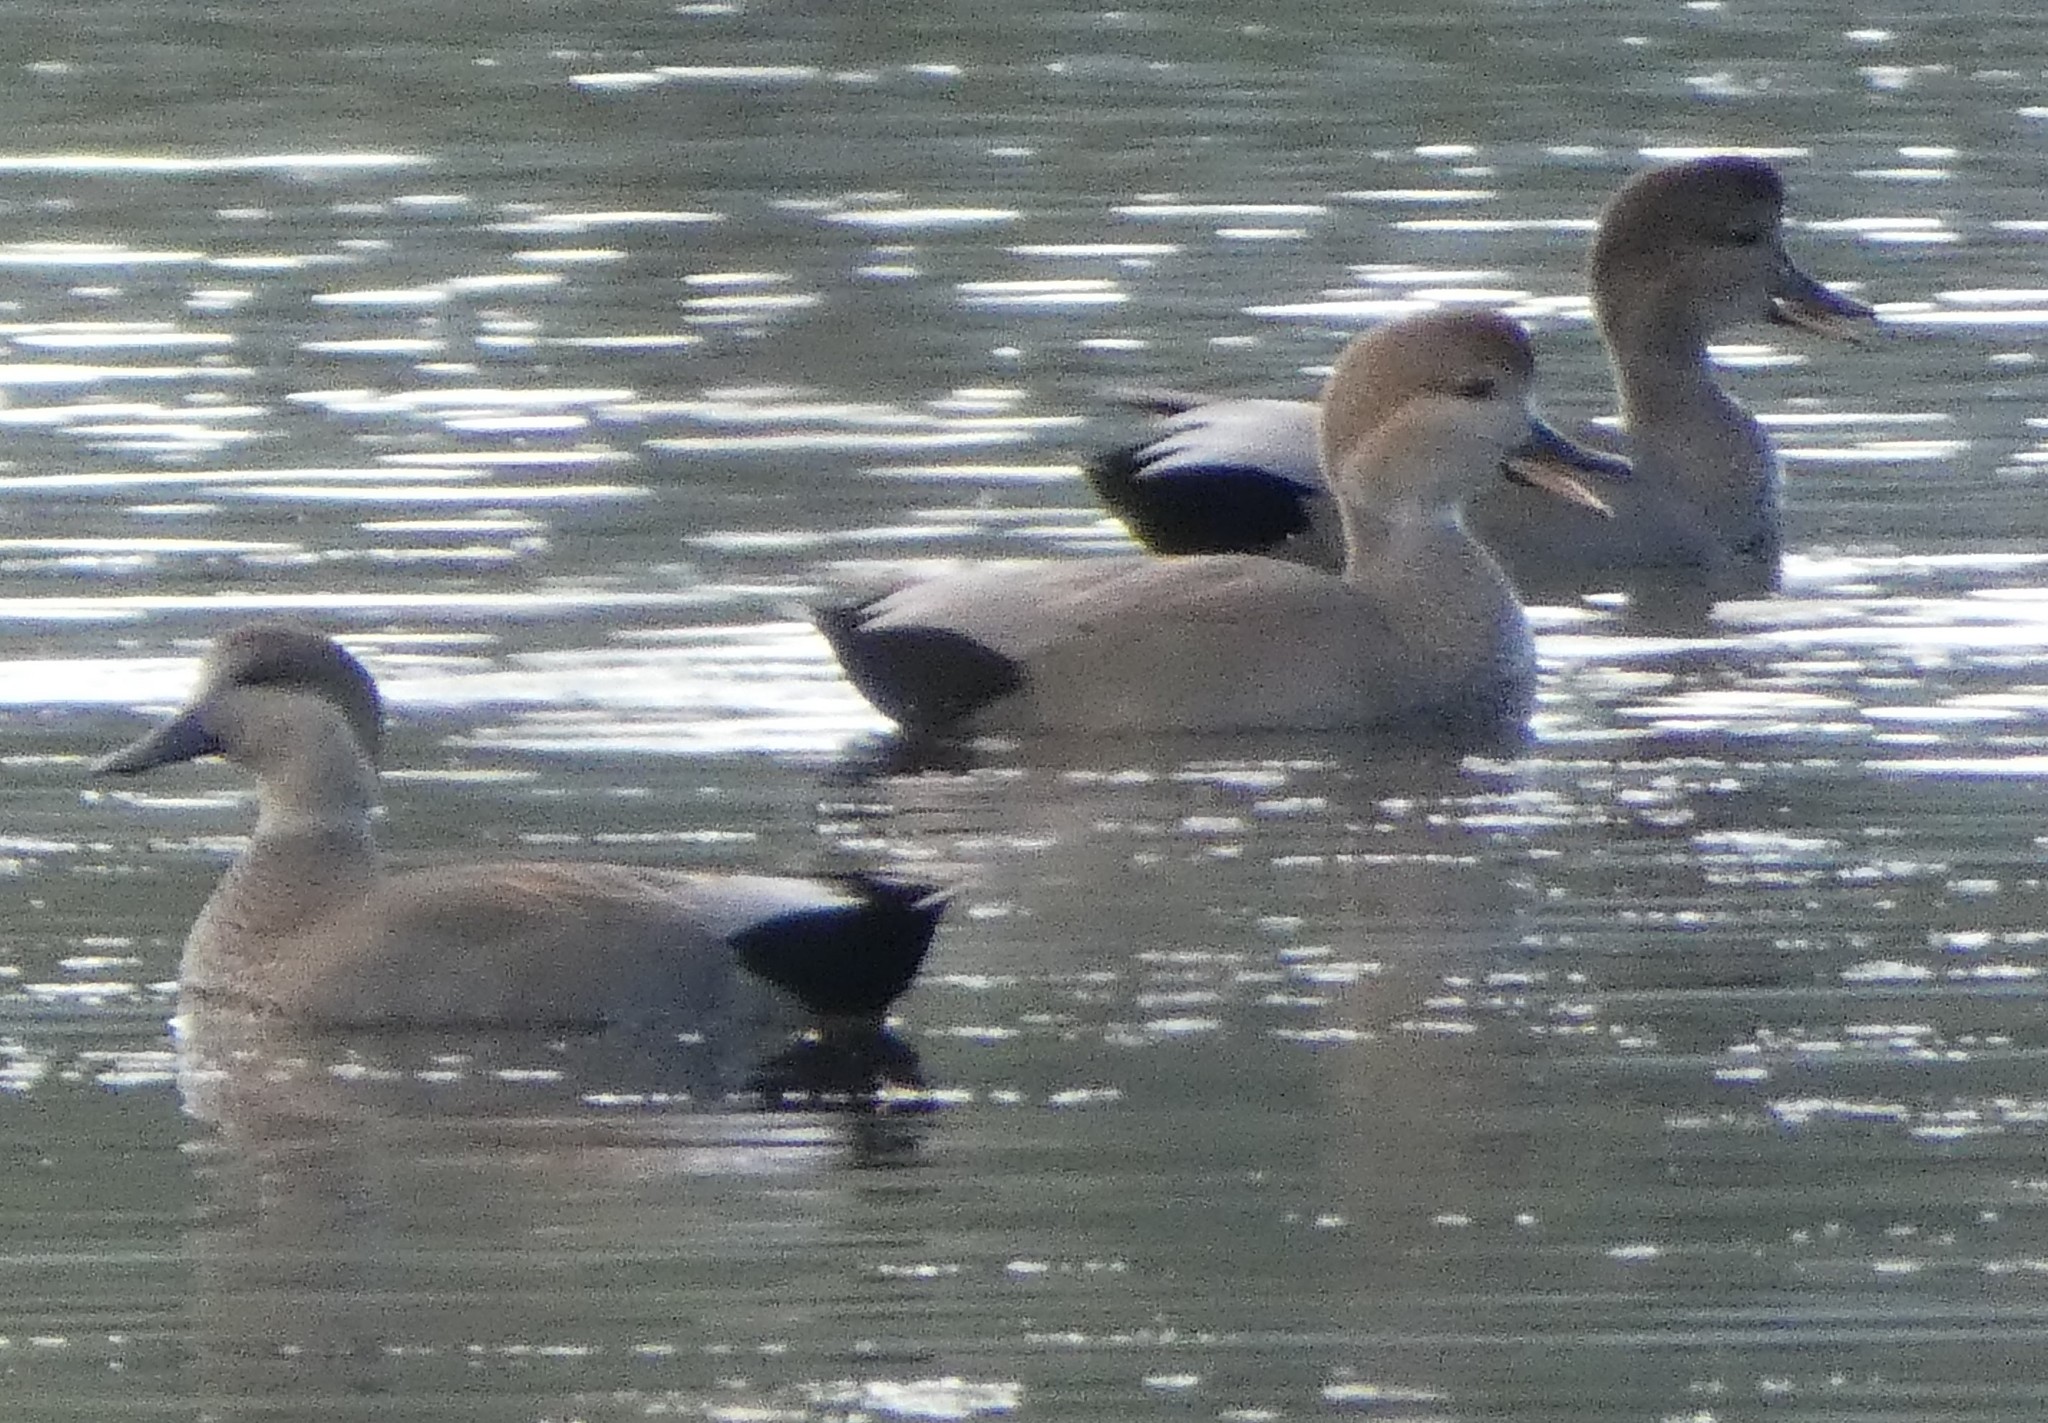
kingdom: Animalia
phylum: Chordata
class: Aves
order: Anseriformes
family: Anatidae
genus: Mareca
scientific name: Mareca strepera
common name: Gadwall
